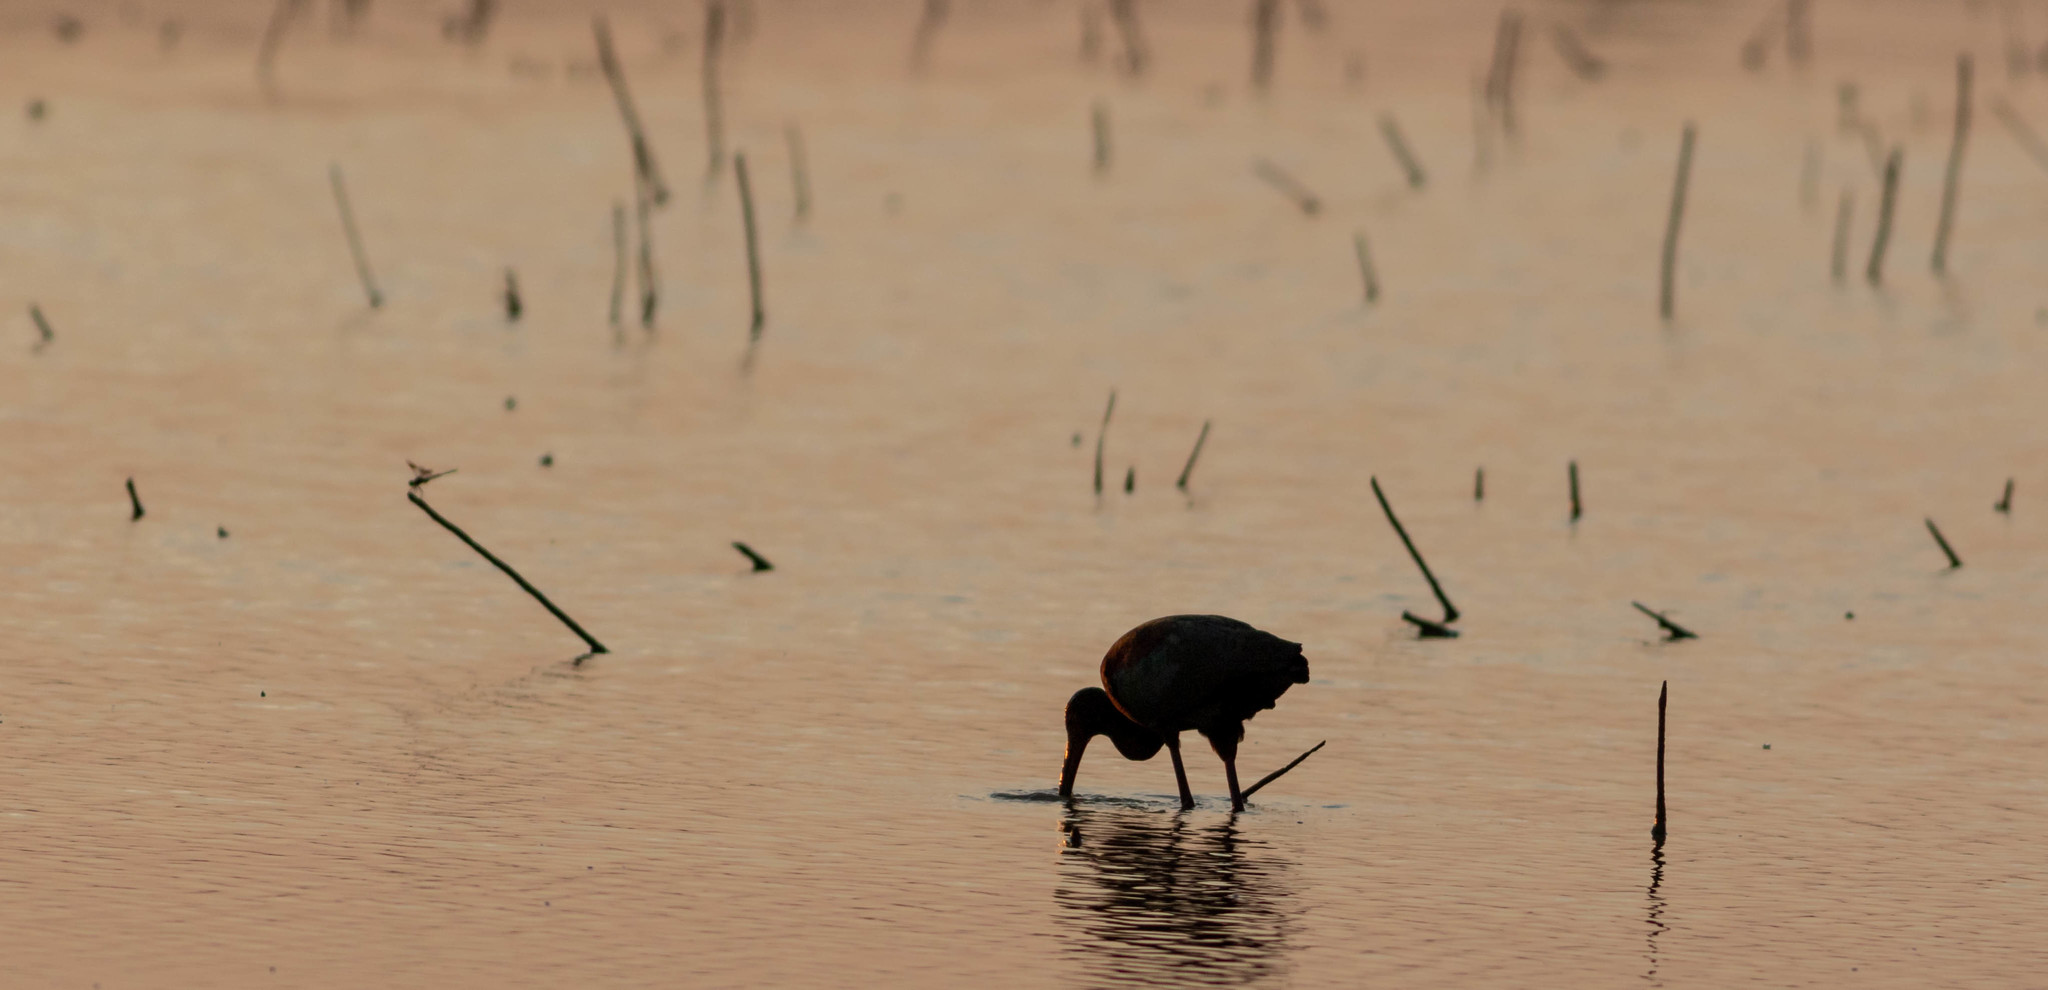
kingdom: Animalia
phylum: Chordata
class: Aves
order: Pelecaniformes
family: Threskiornithidae
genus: Plegadis
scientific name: Plegadis
